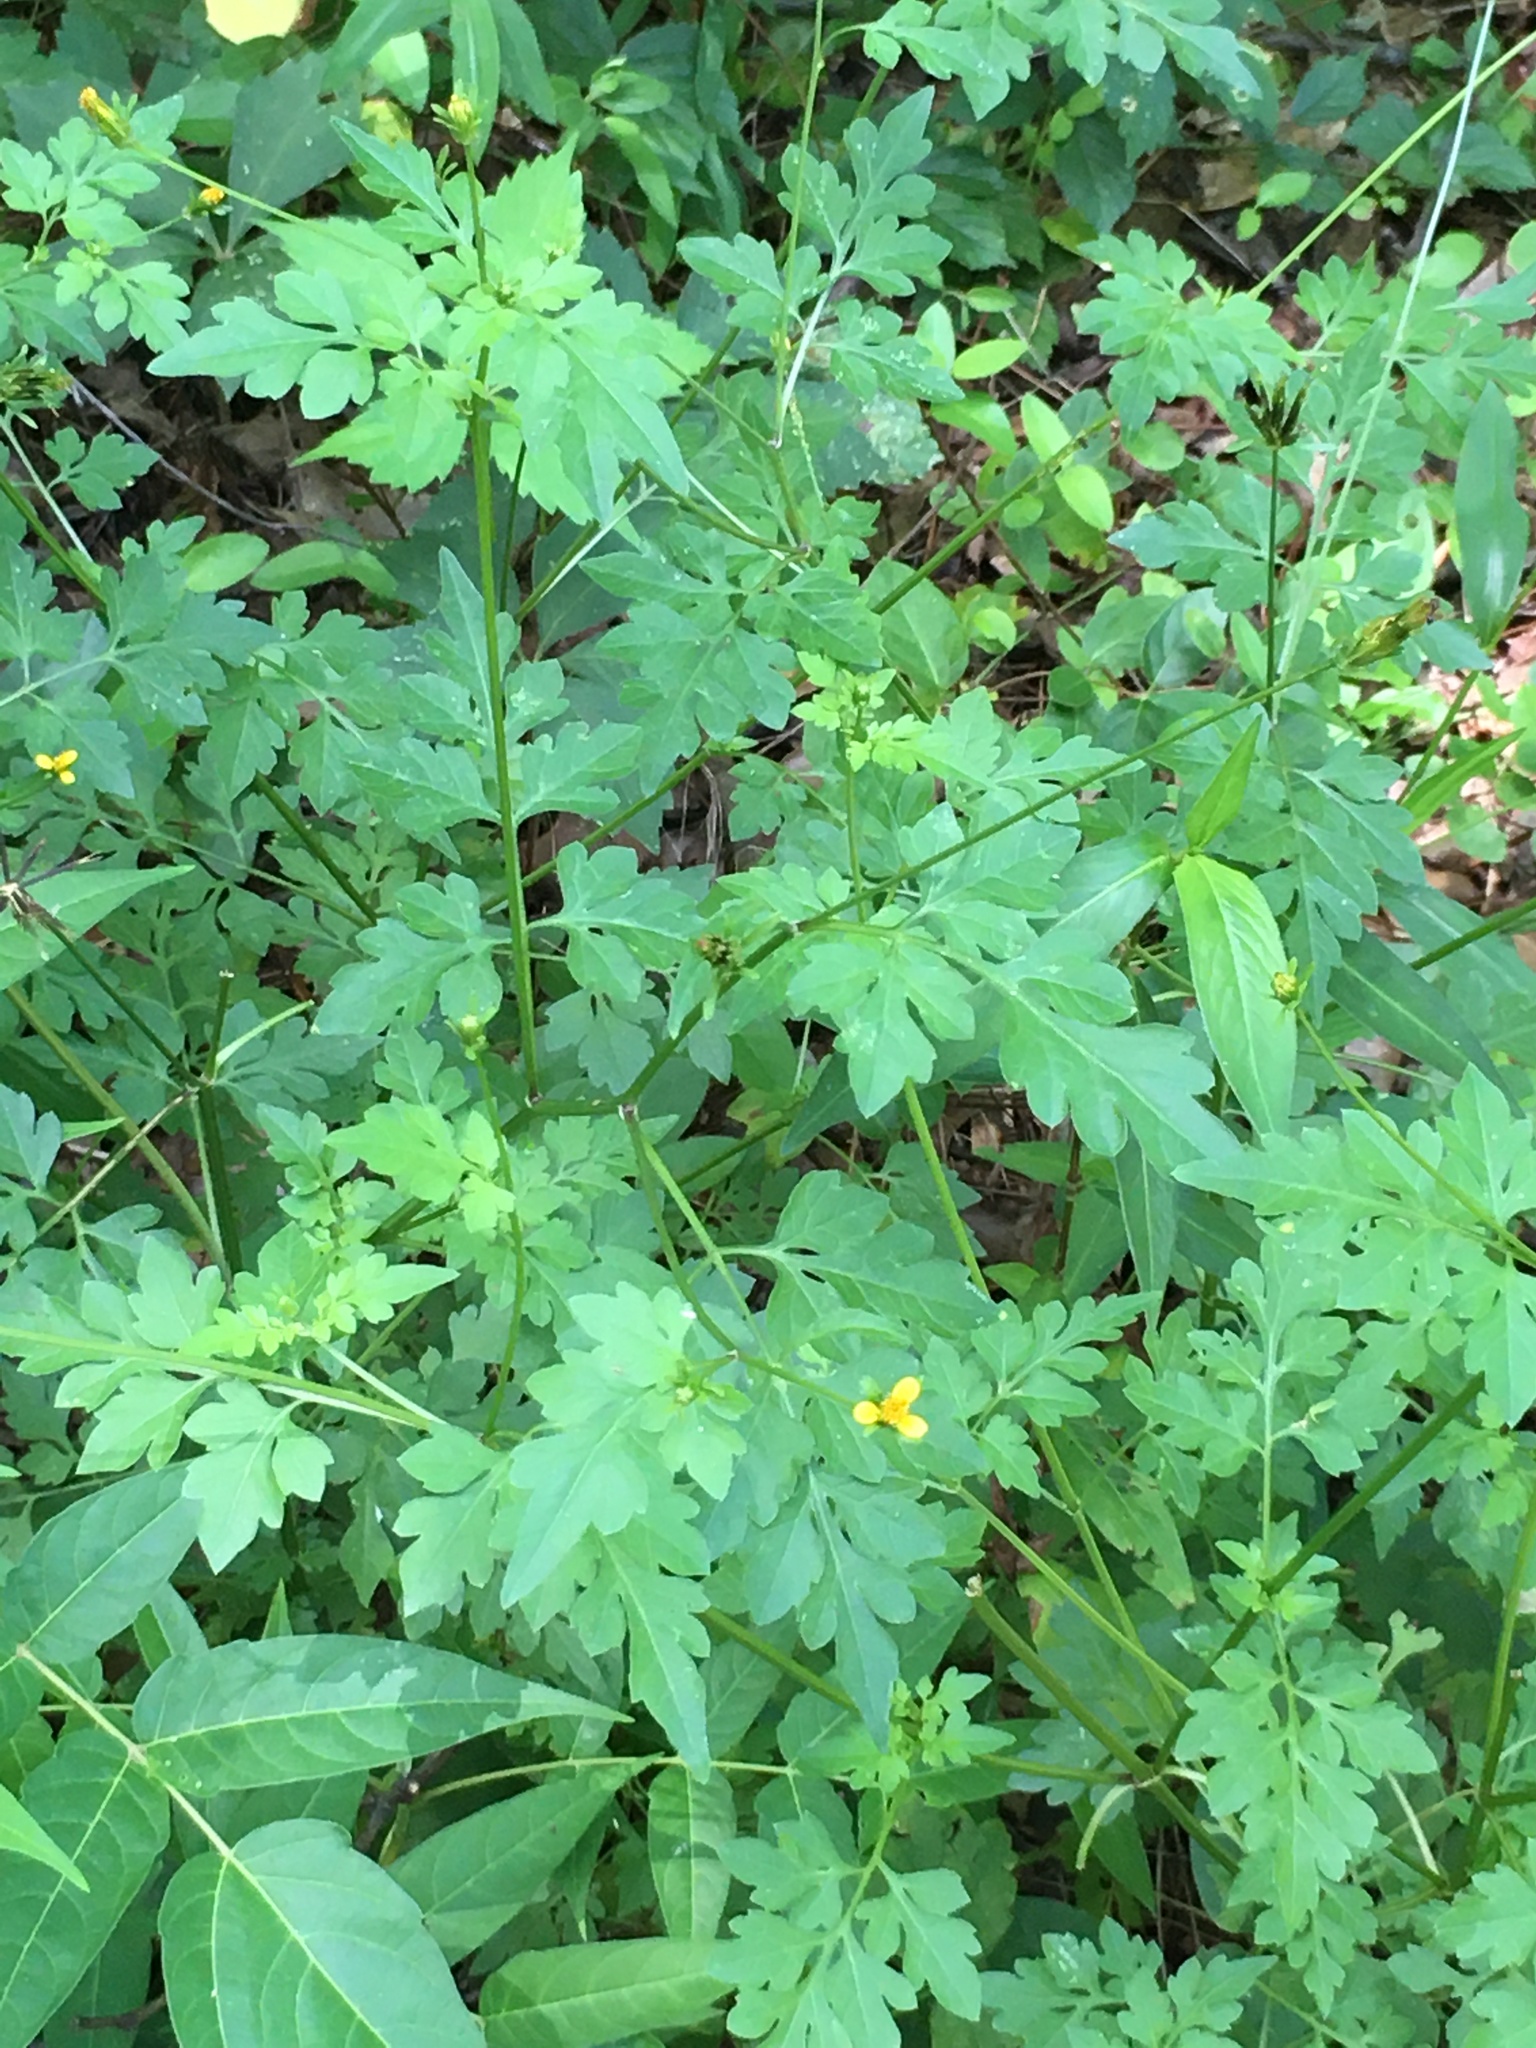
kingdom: Plantae
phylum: Tracheophyta
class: Magnoliopsida
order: Asterales
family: Asteraceae
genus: Bidens
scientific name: Bidens bipinnata
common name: Spanish-needles
